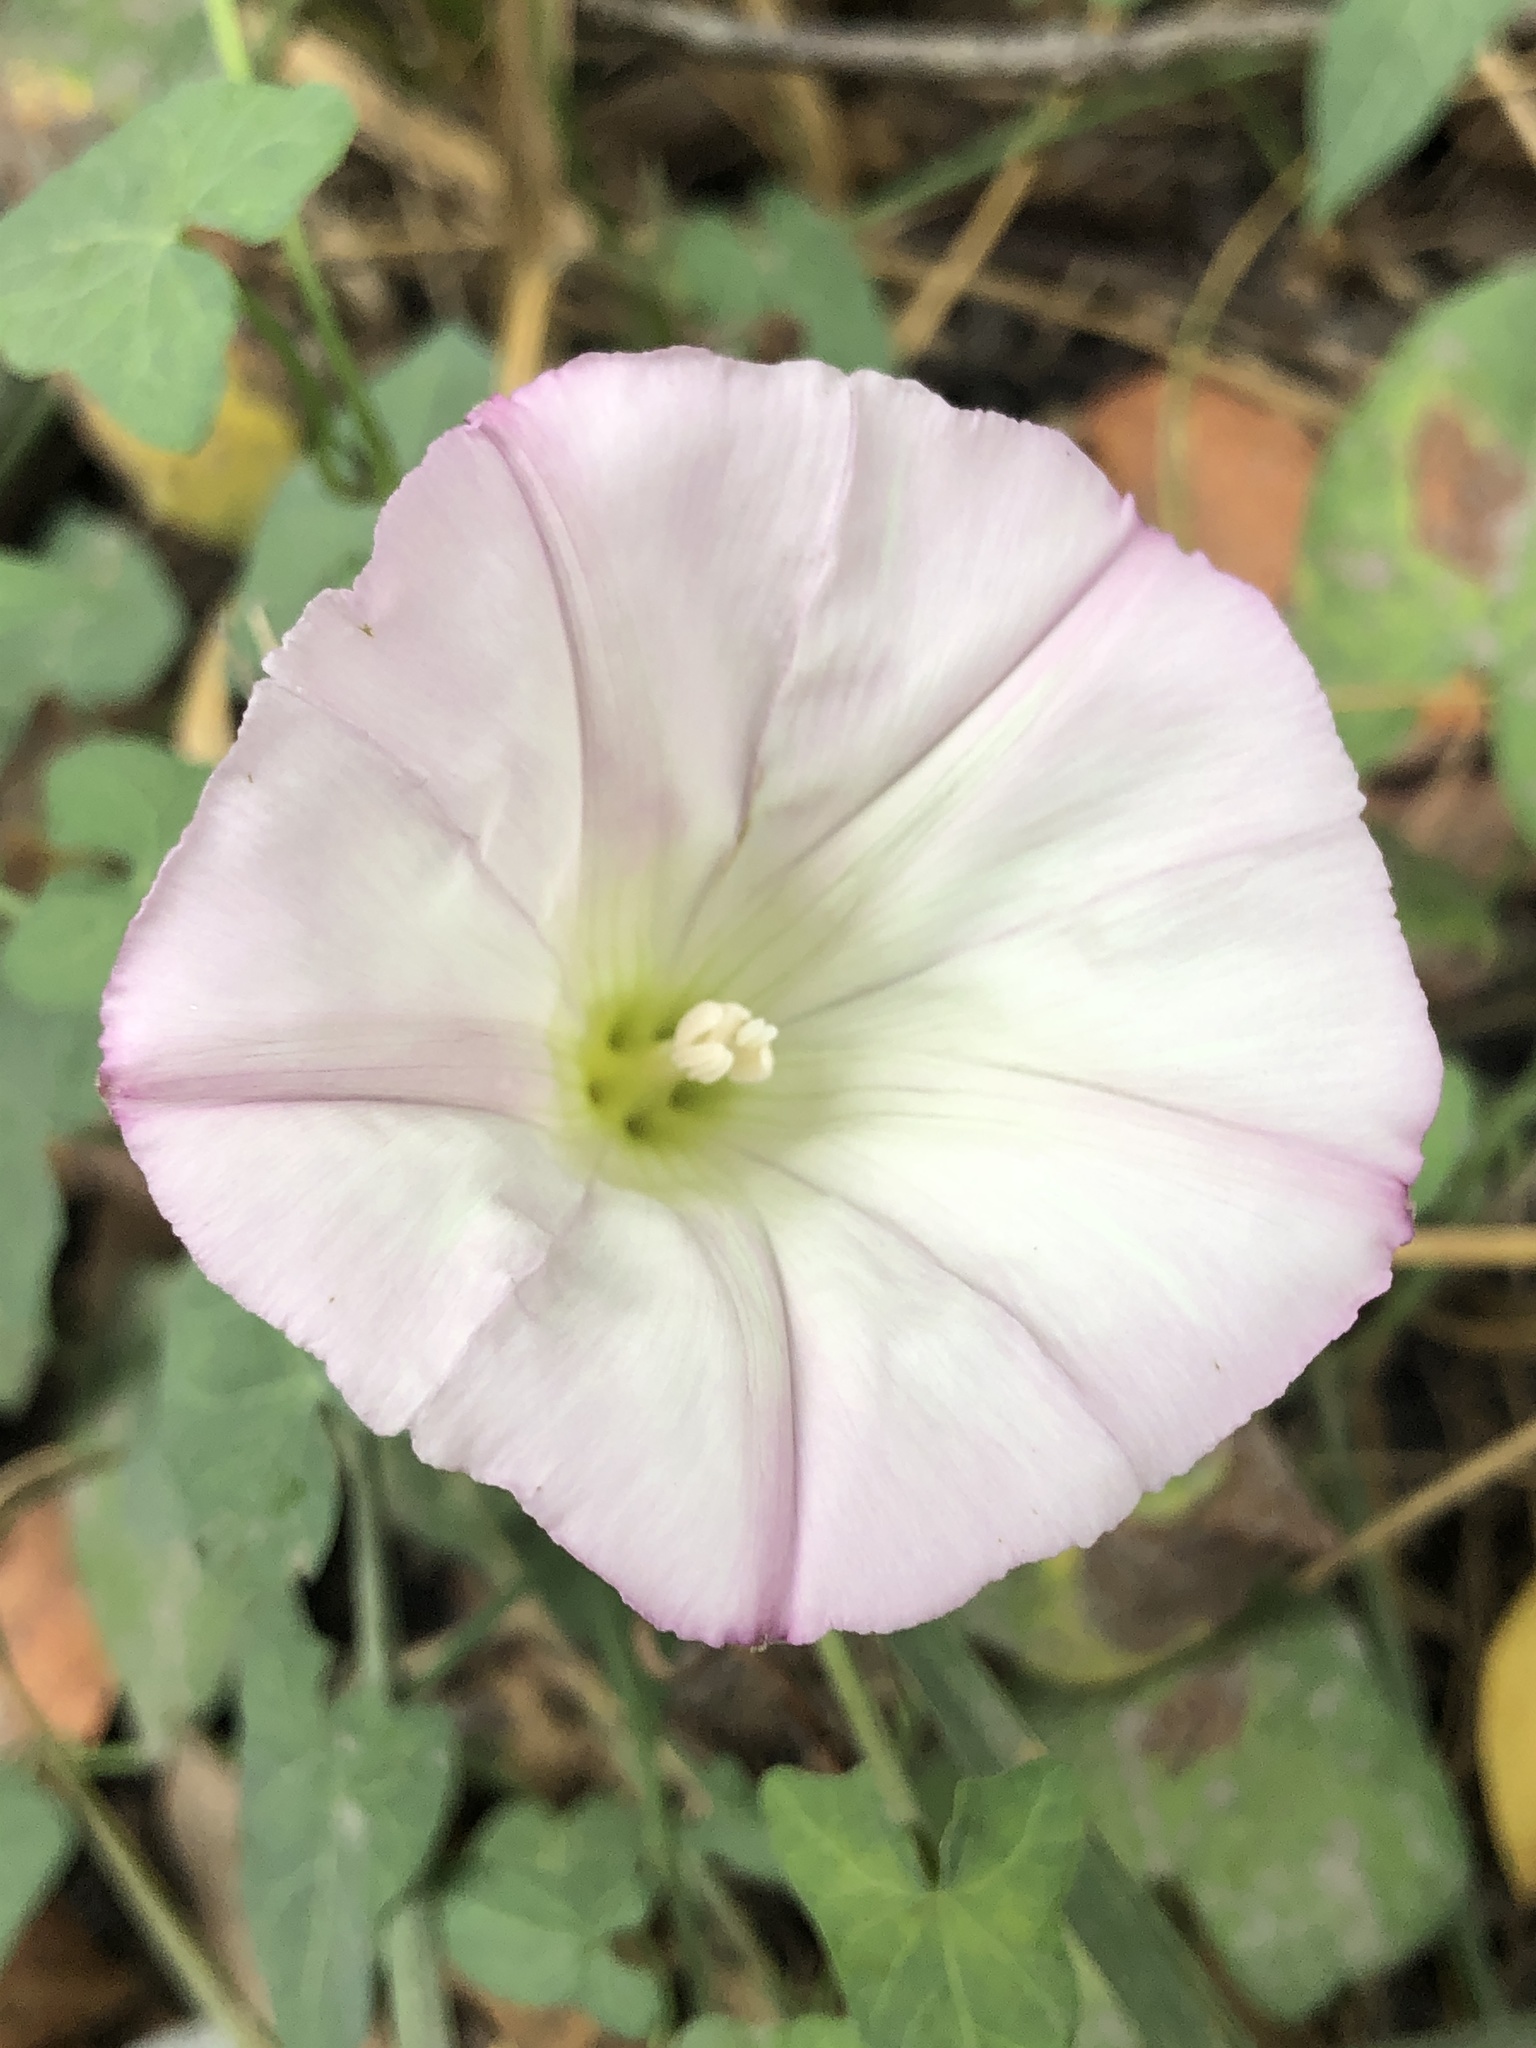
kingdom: Plantae
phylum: Tracheophyta
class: Magnoliopsida
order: Solanales
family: Convolvulaceae
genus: Calystegia
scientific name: Calystegia purpurata
